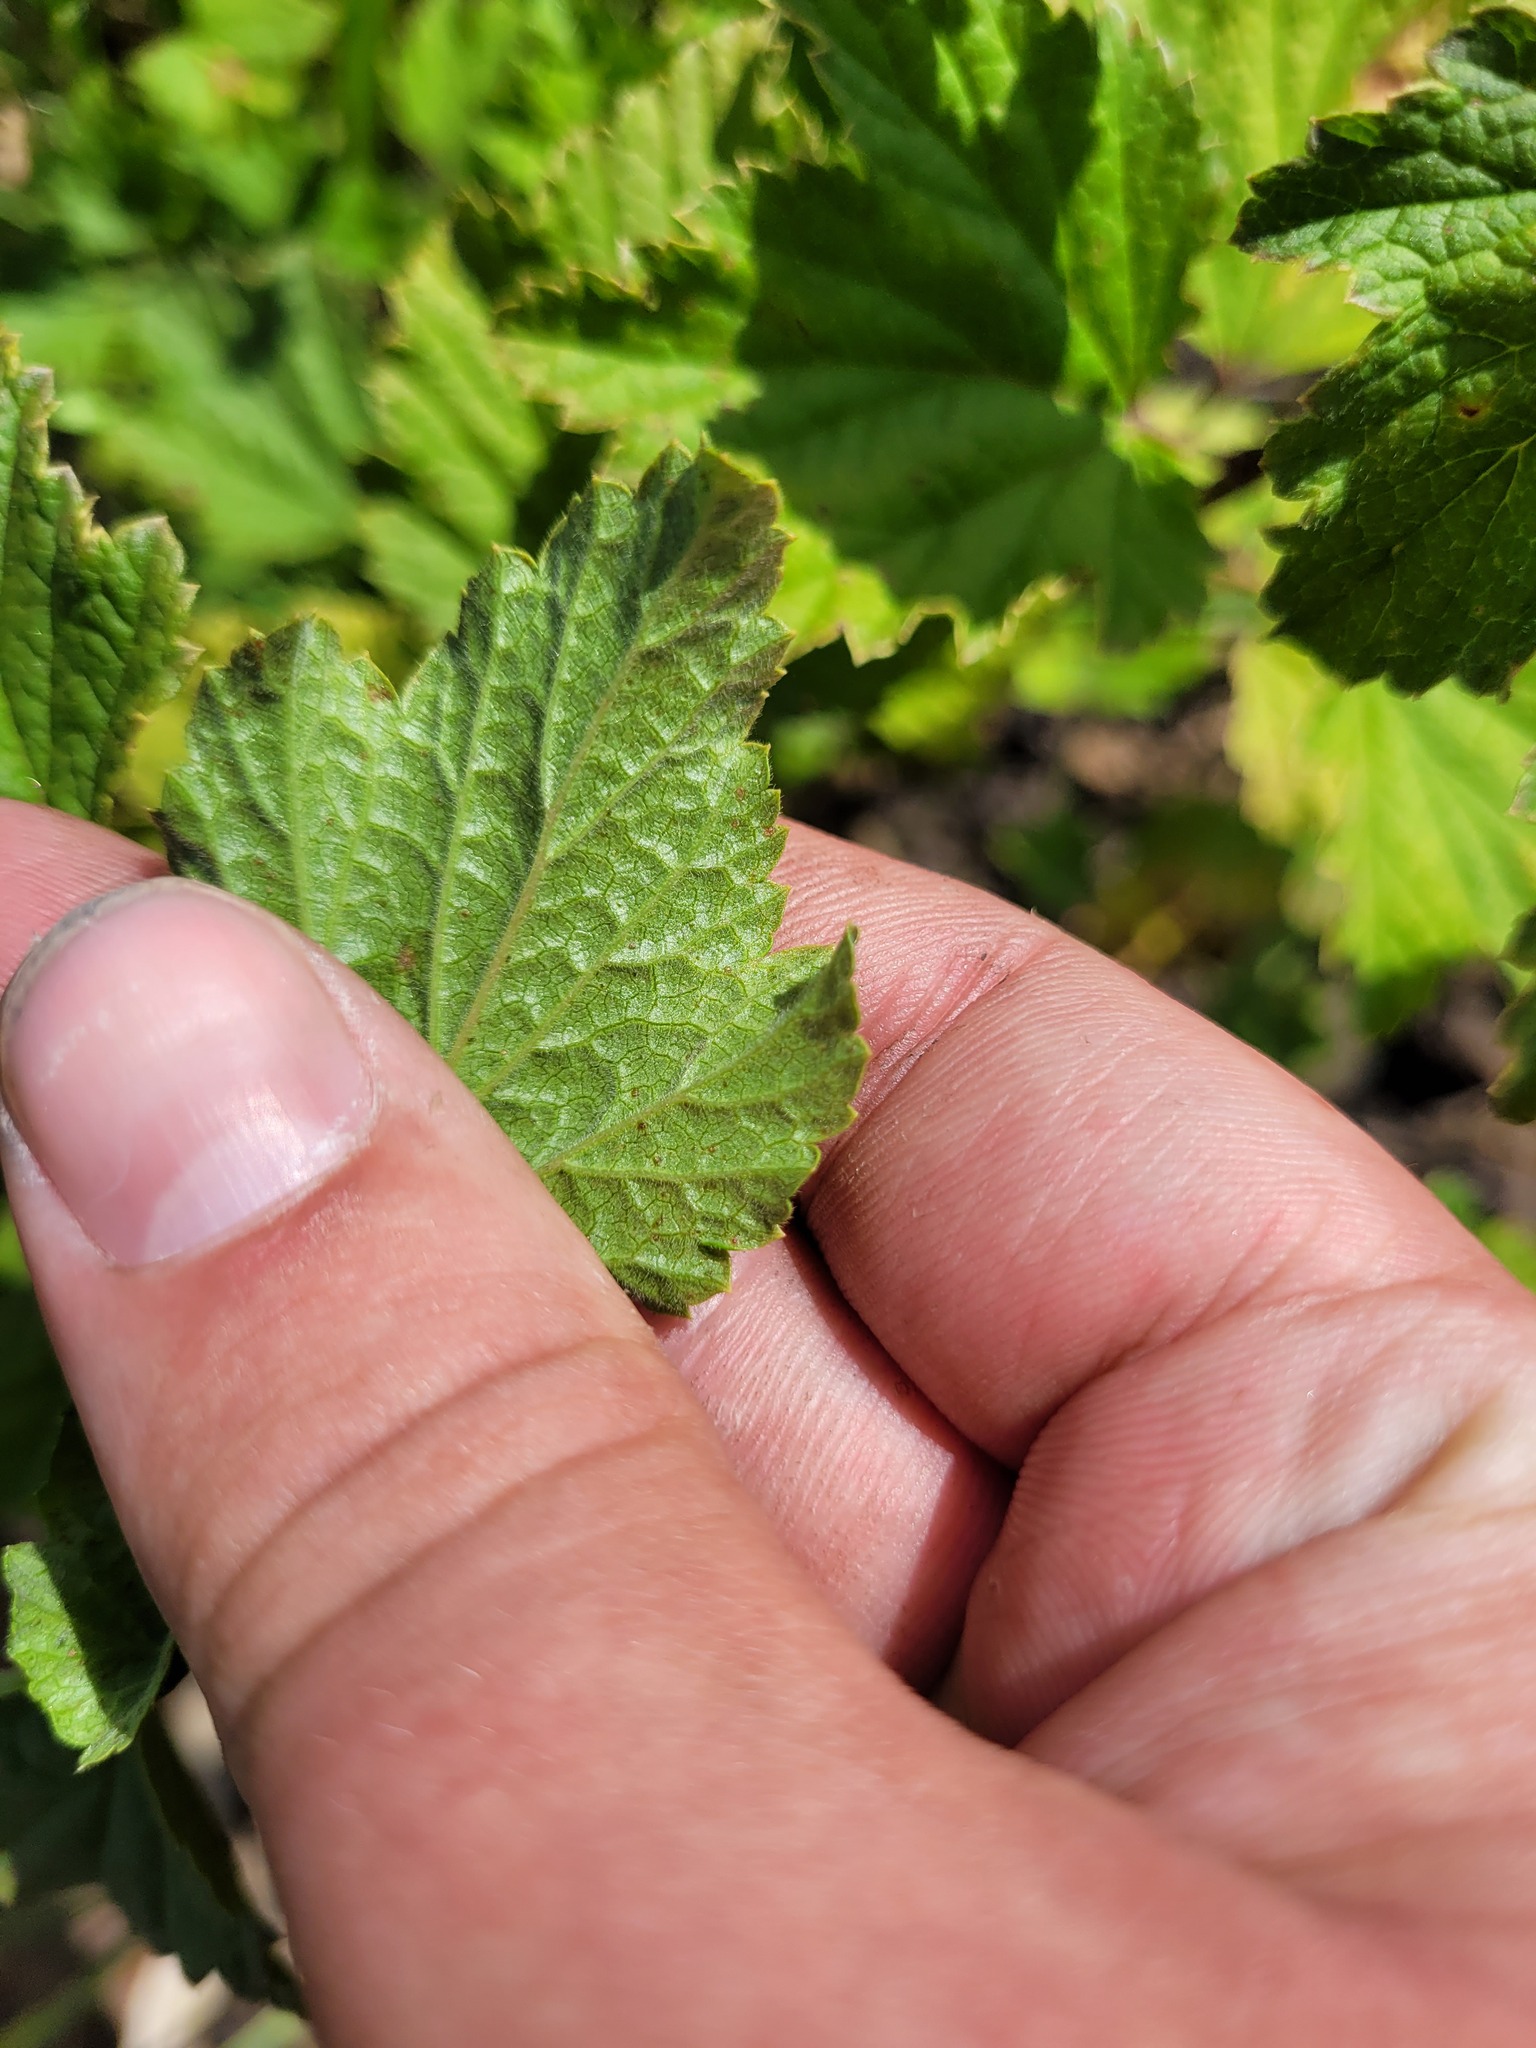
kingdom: Plantae
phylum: Tracheophyta
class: Magnoliopsida
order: Saxifragales
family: Grossulariaceae
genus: Ribes
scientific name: Ribes spicatum
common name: Downy currant
